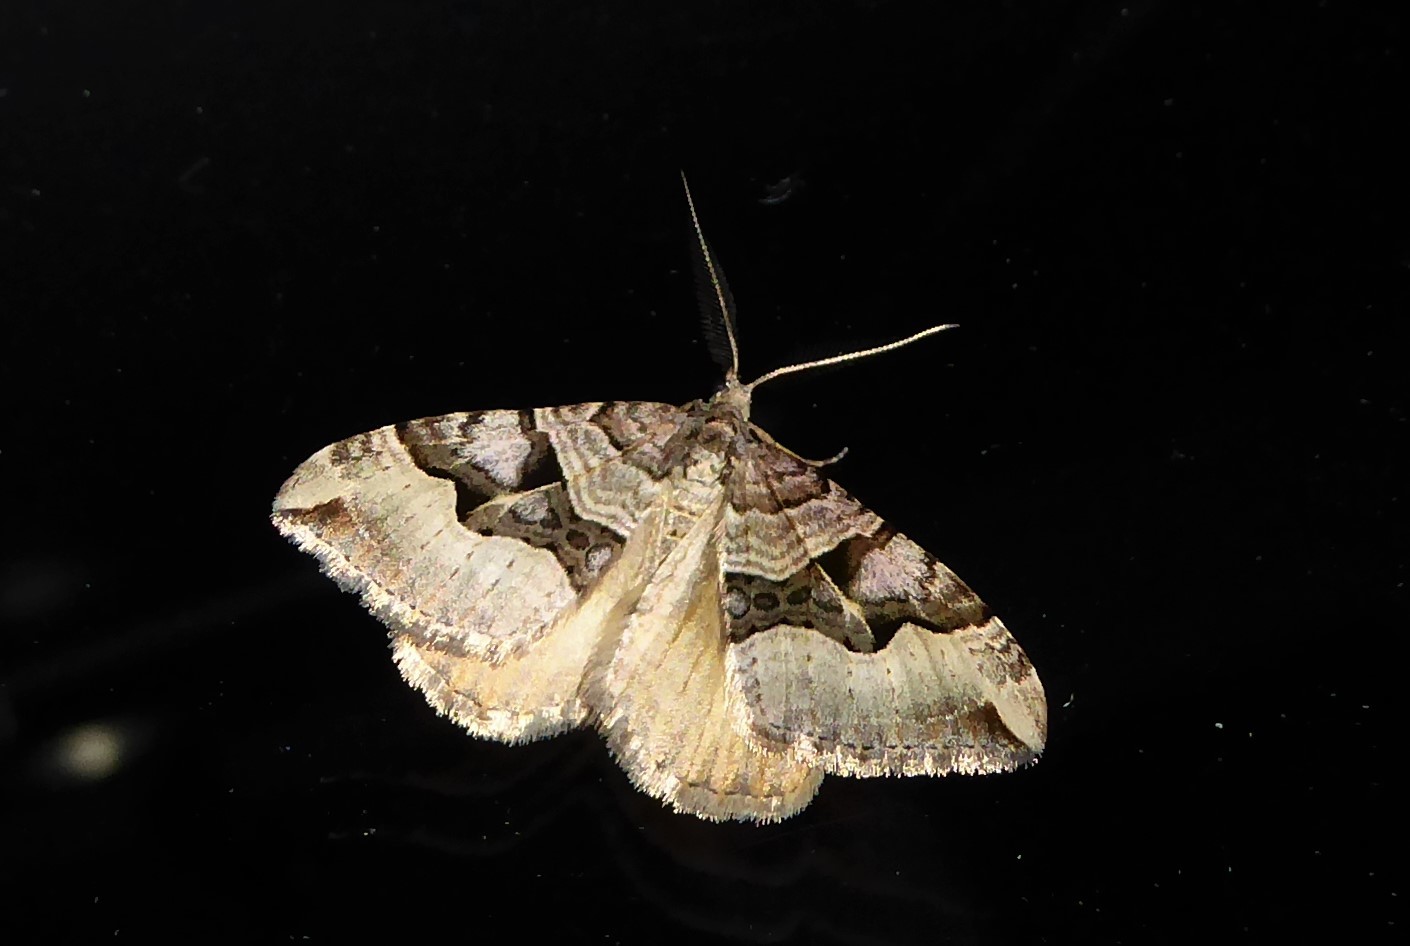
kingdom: Animalia
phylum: Arthropoda
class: Insecta
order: Lepidoptera
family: Geometridae
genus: Xanthorhoe
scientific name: Xanthorhoe semifissata
